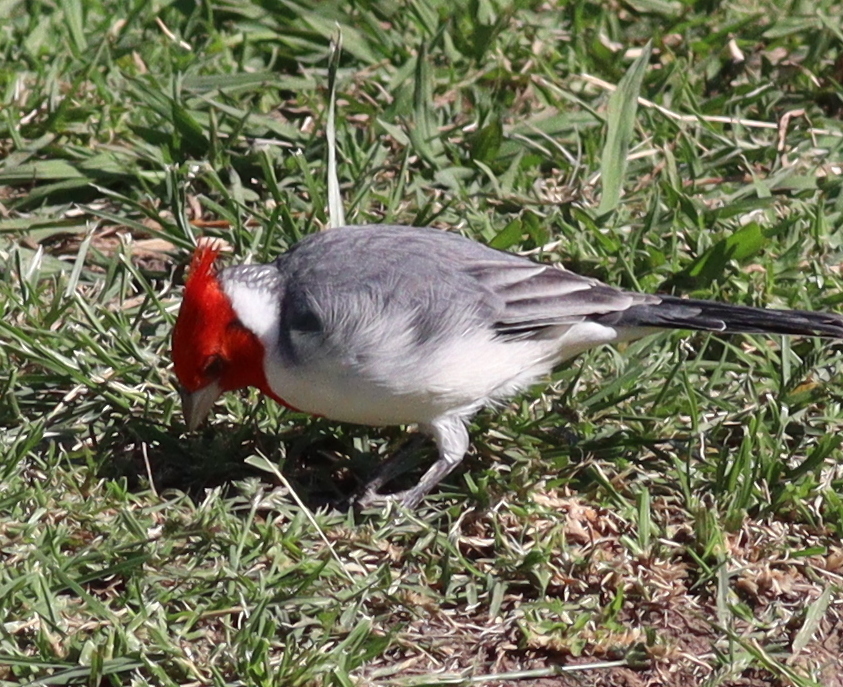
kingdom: Animalia
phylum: Chordata
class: Aves
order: Passeriformes
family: Thraupidae
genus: Paroaria
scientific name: Paroaria coronata
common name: Red-crested cardinal
